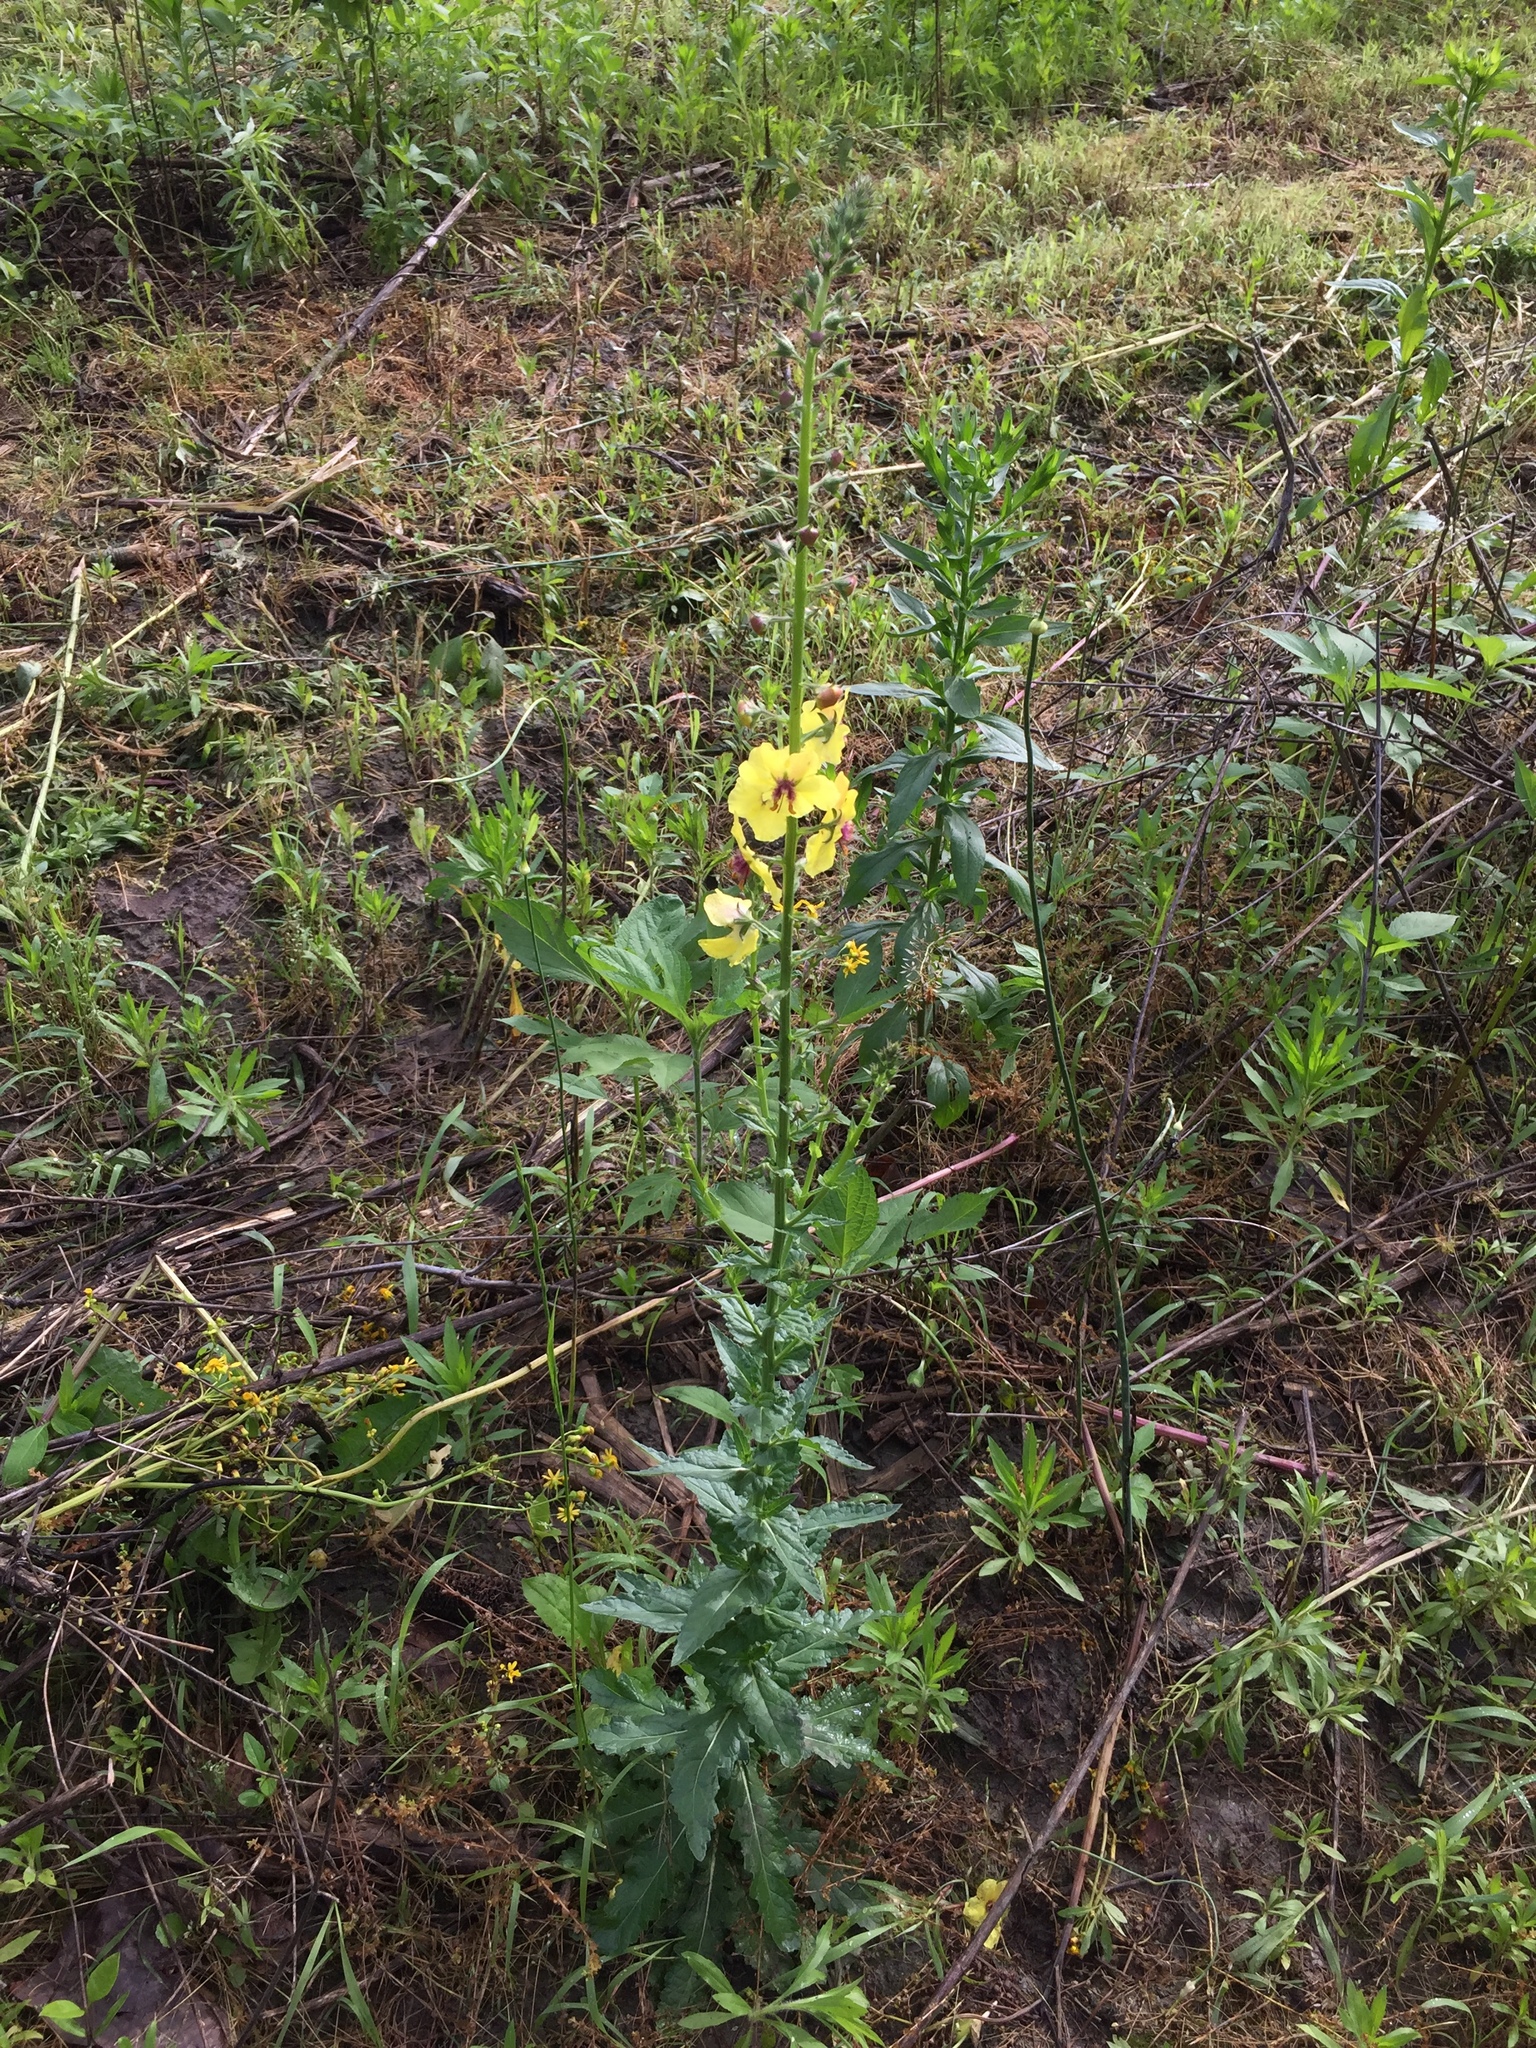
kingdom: Plantae
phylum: Tracheophyta
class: Magnoliopsida
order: Lamiales
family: Scrophulariaceae
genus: Verbascum
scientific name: Verbascum blattaria
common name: Moth mullein
